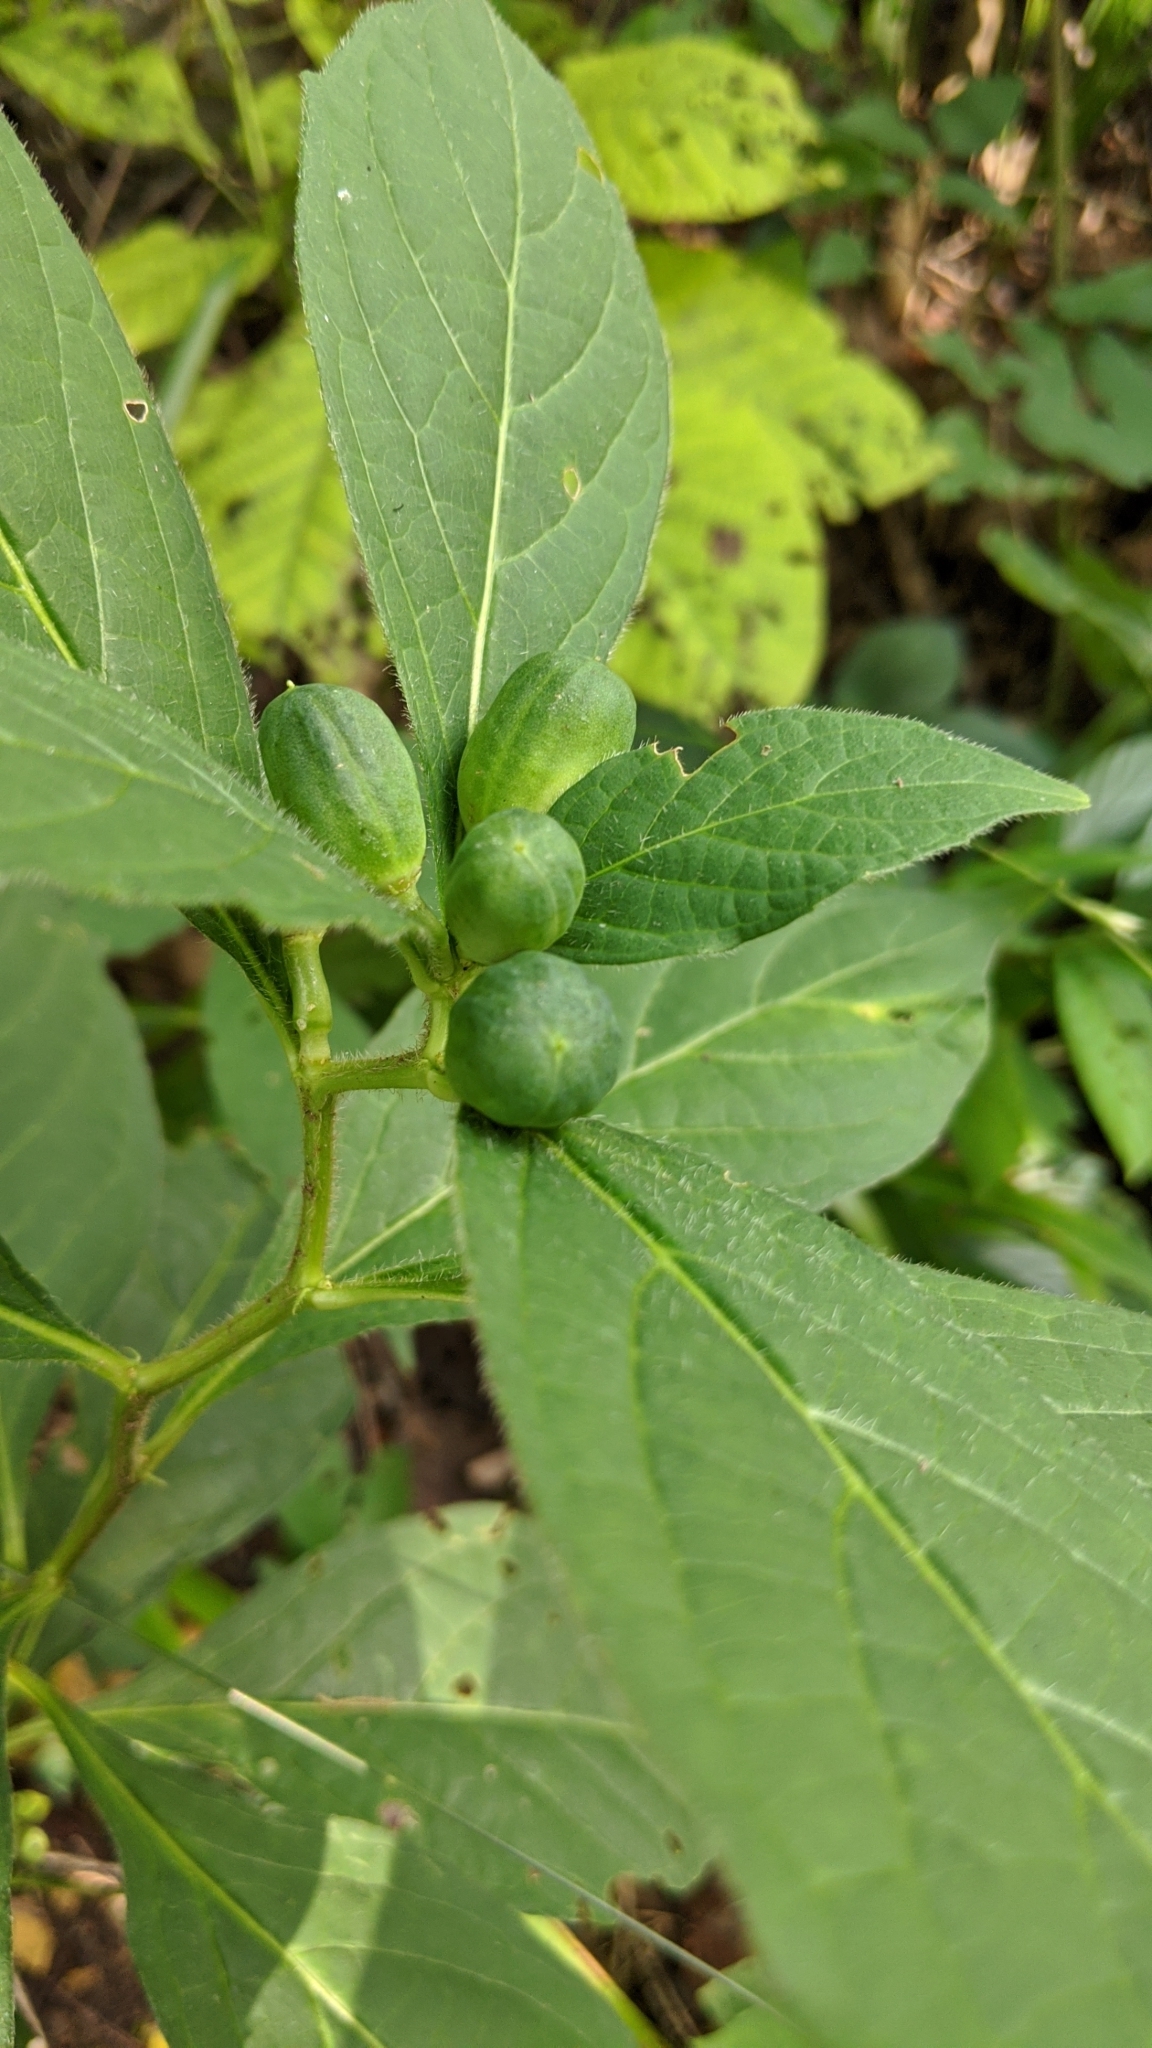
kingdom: Plantae
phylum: Tracheophyta
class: Magnoliopsida
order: Malpighiales
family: Violaceae
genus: Cubelium
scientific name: Cubelium concolor
